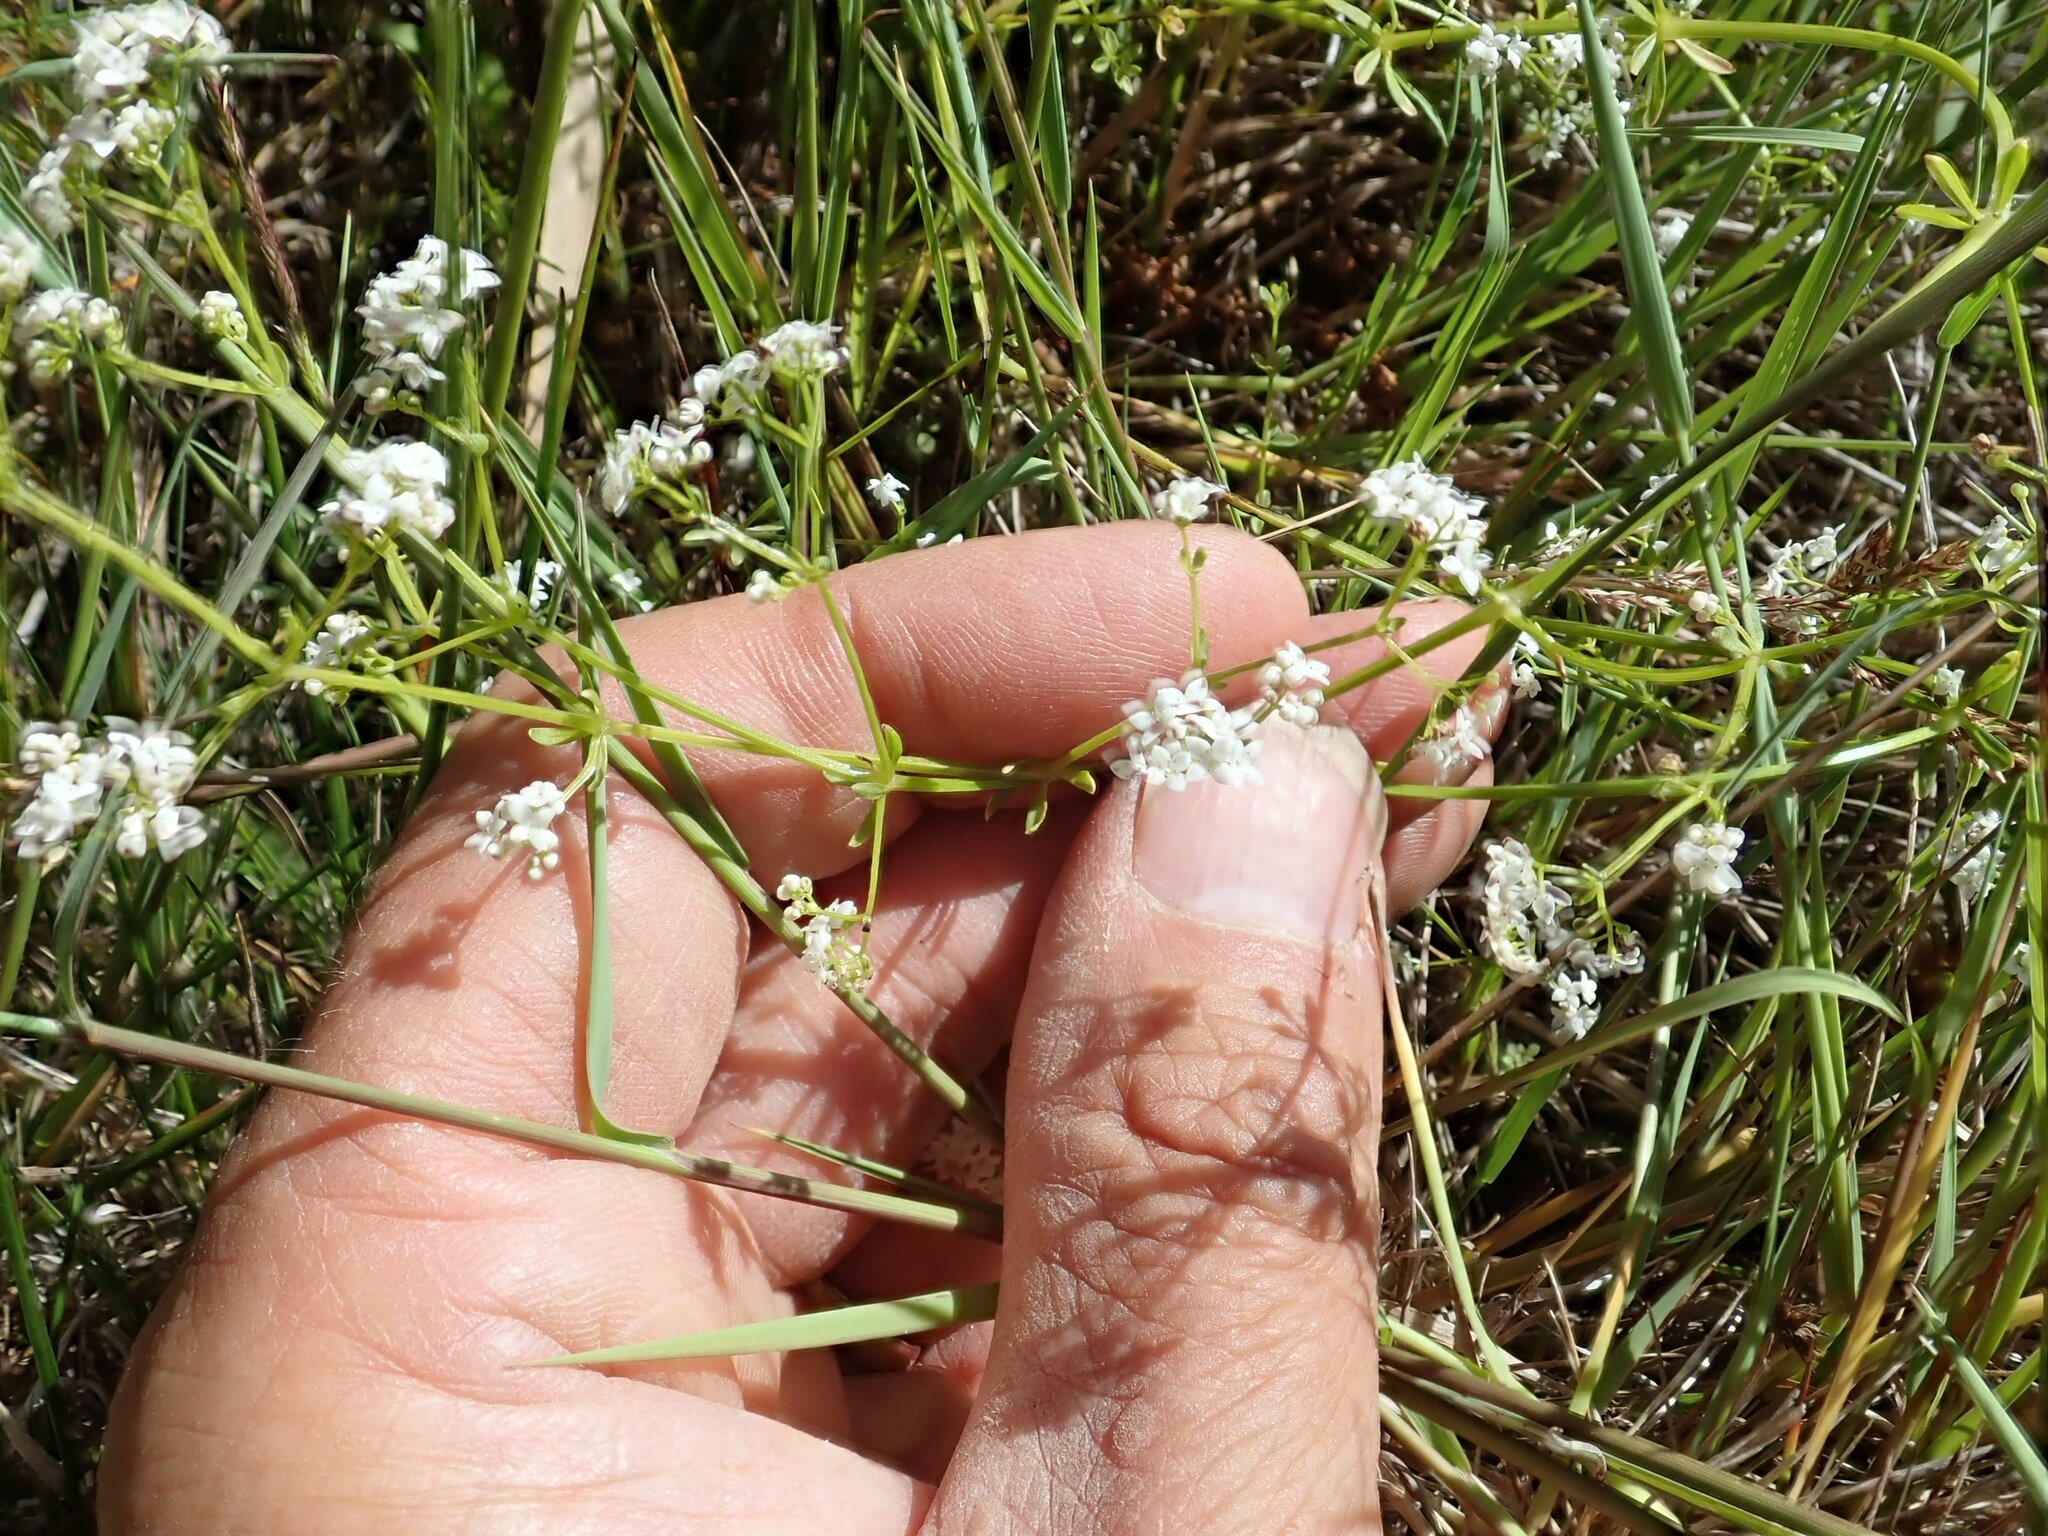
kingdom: Plantae
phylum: Tracheophyta
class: Magnoliopsida
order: Gentianales
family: Rubiaceae
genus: Galium
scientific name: Galium palustre
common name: Common marsh-bedstraw
